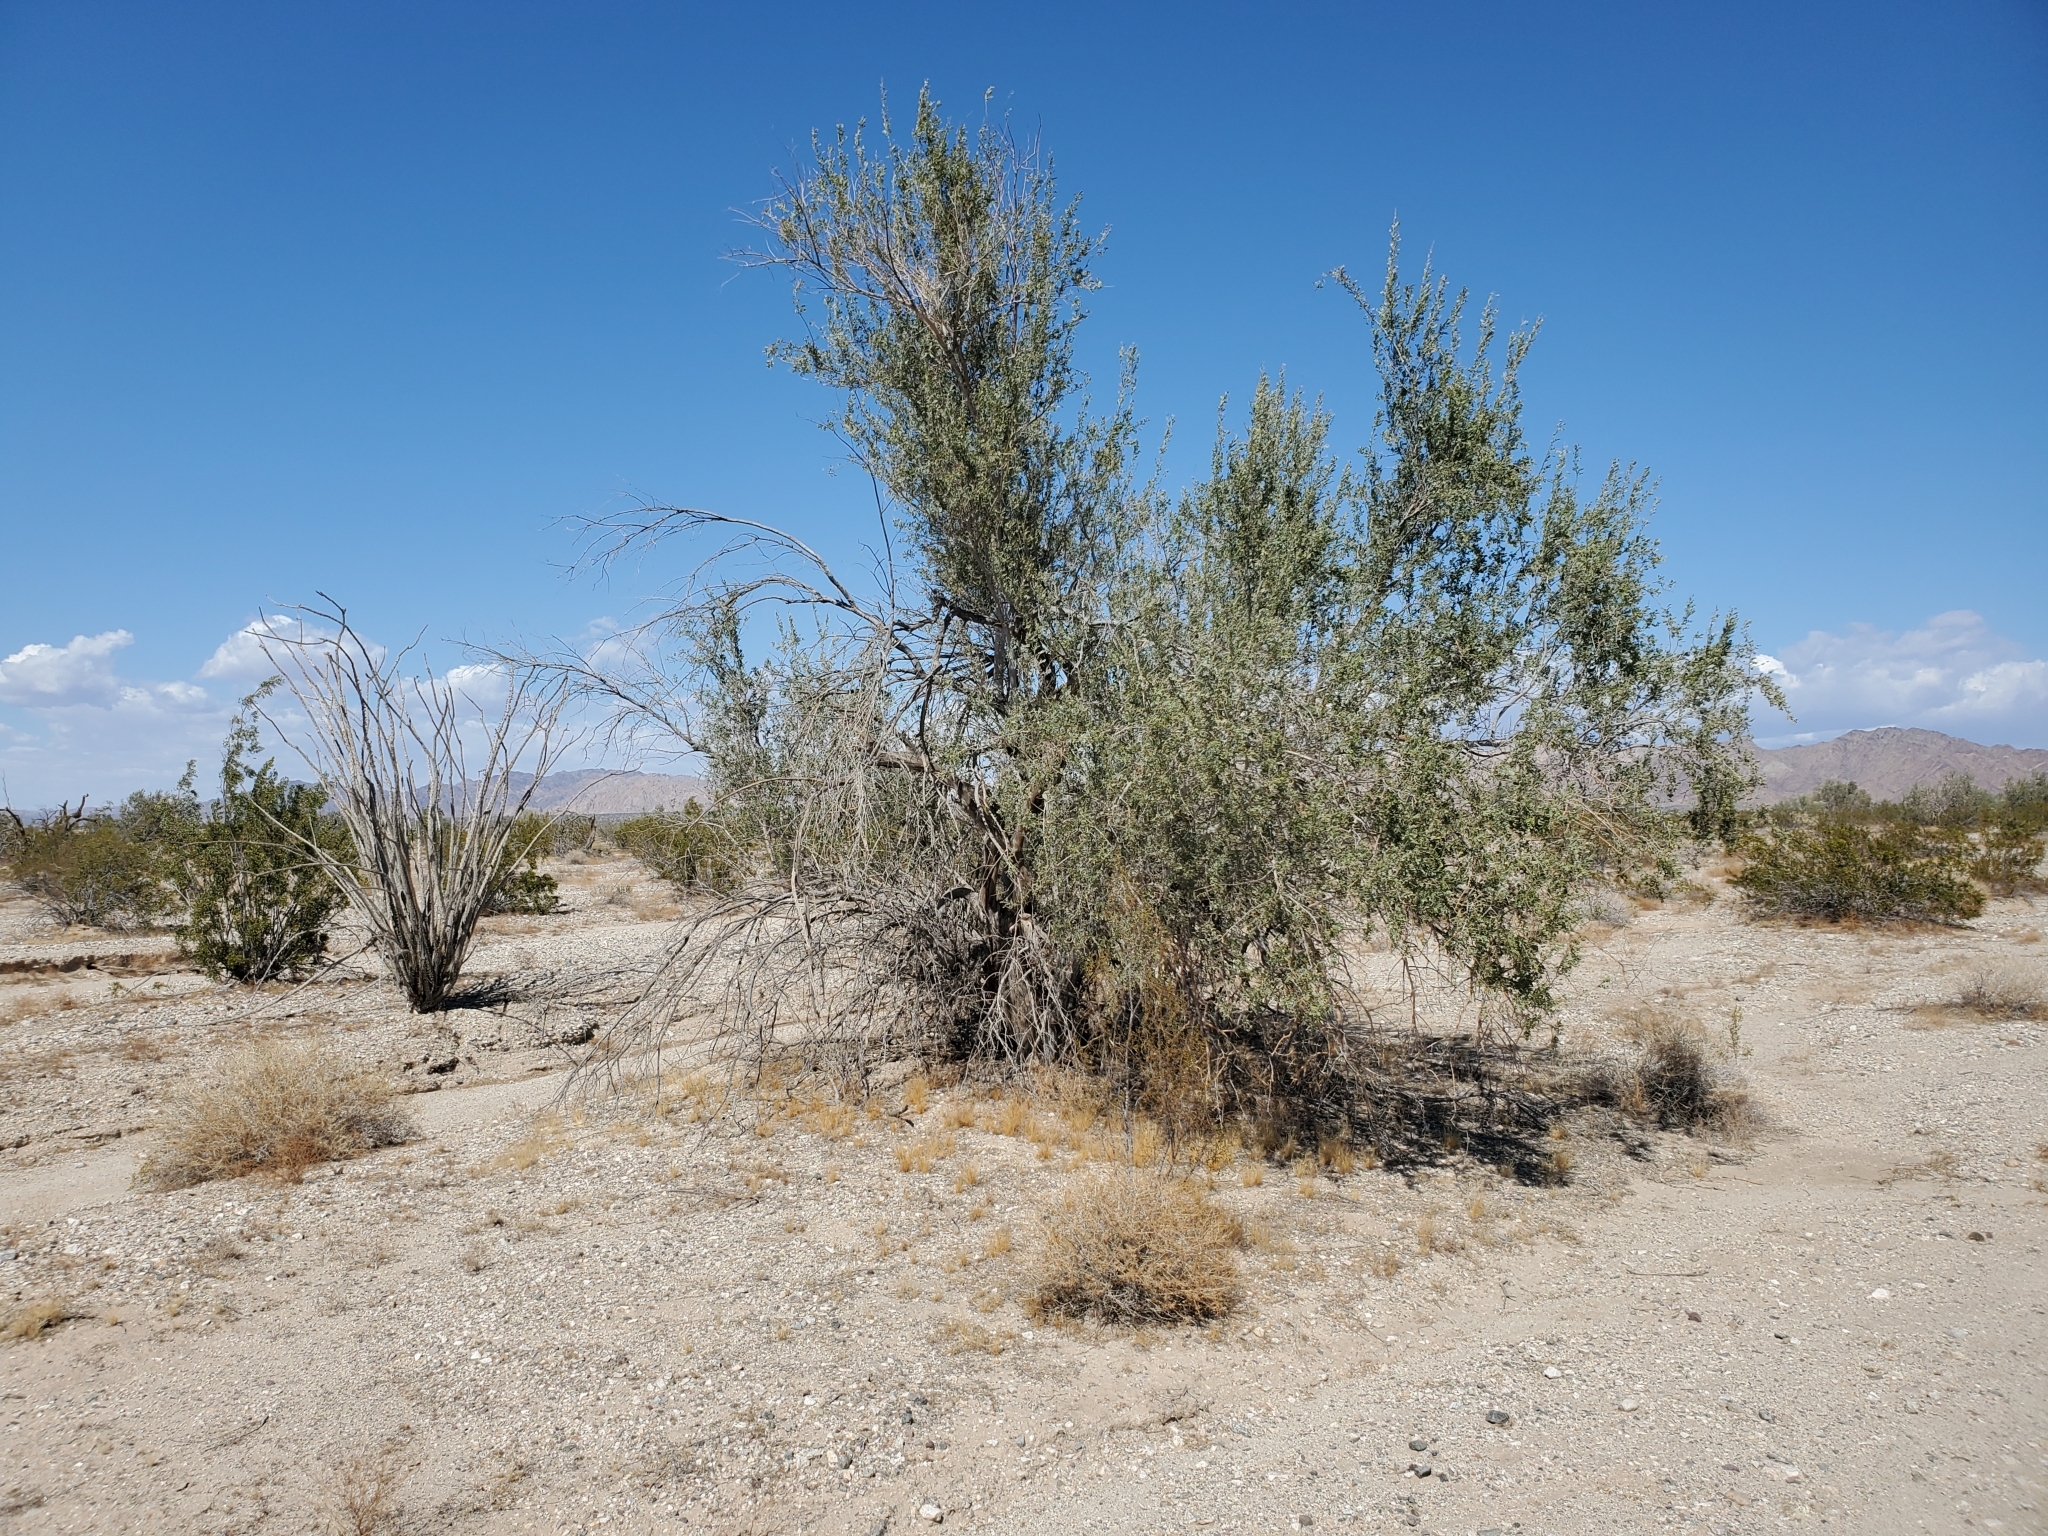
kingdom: Plantae
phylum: Tracheophyta
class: Magnoliopsida
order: Fabales
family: Fabaceae
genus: Olneya
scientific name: Olneya tesota
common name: Desert ironwood
